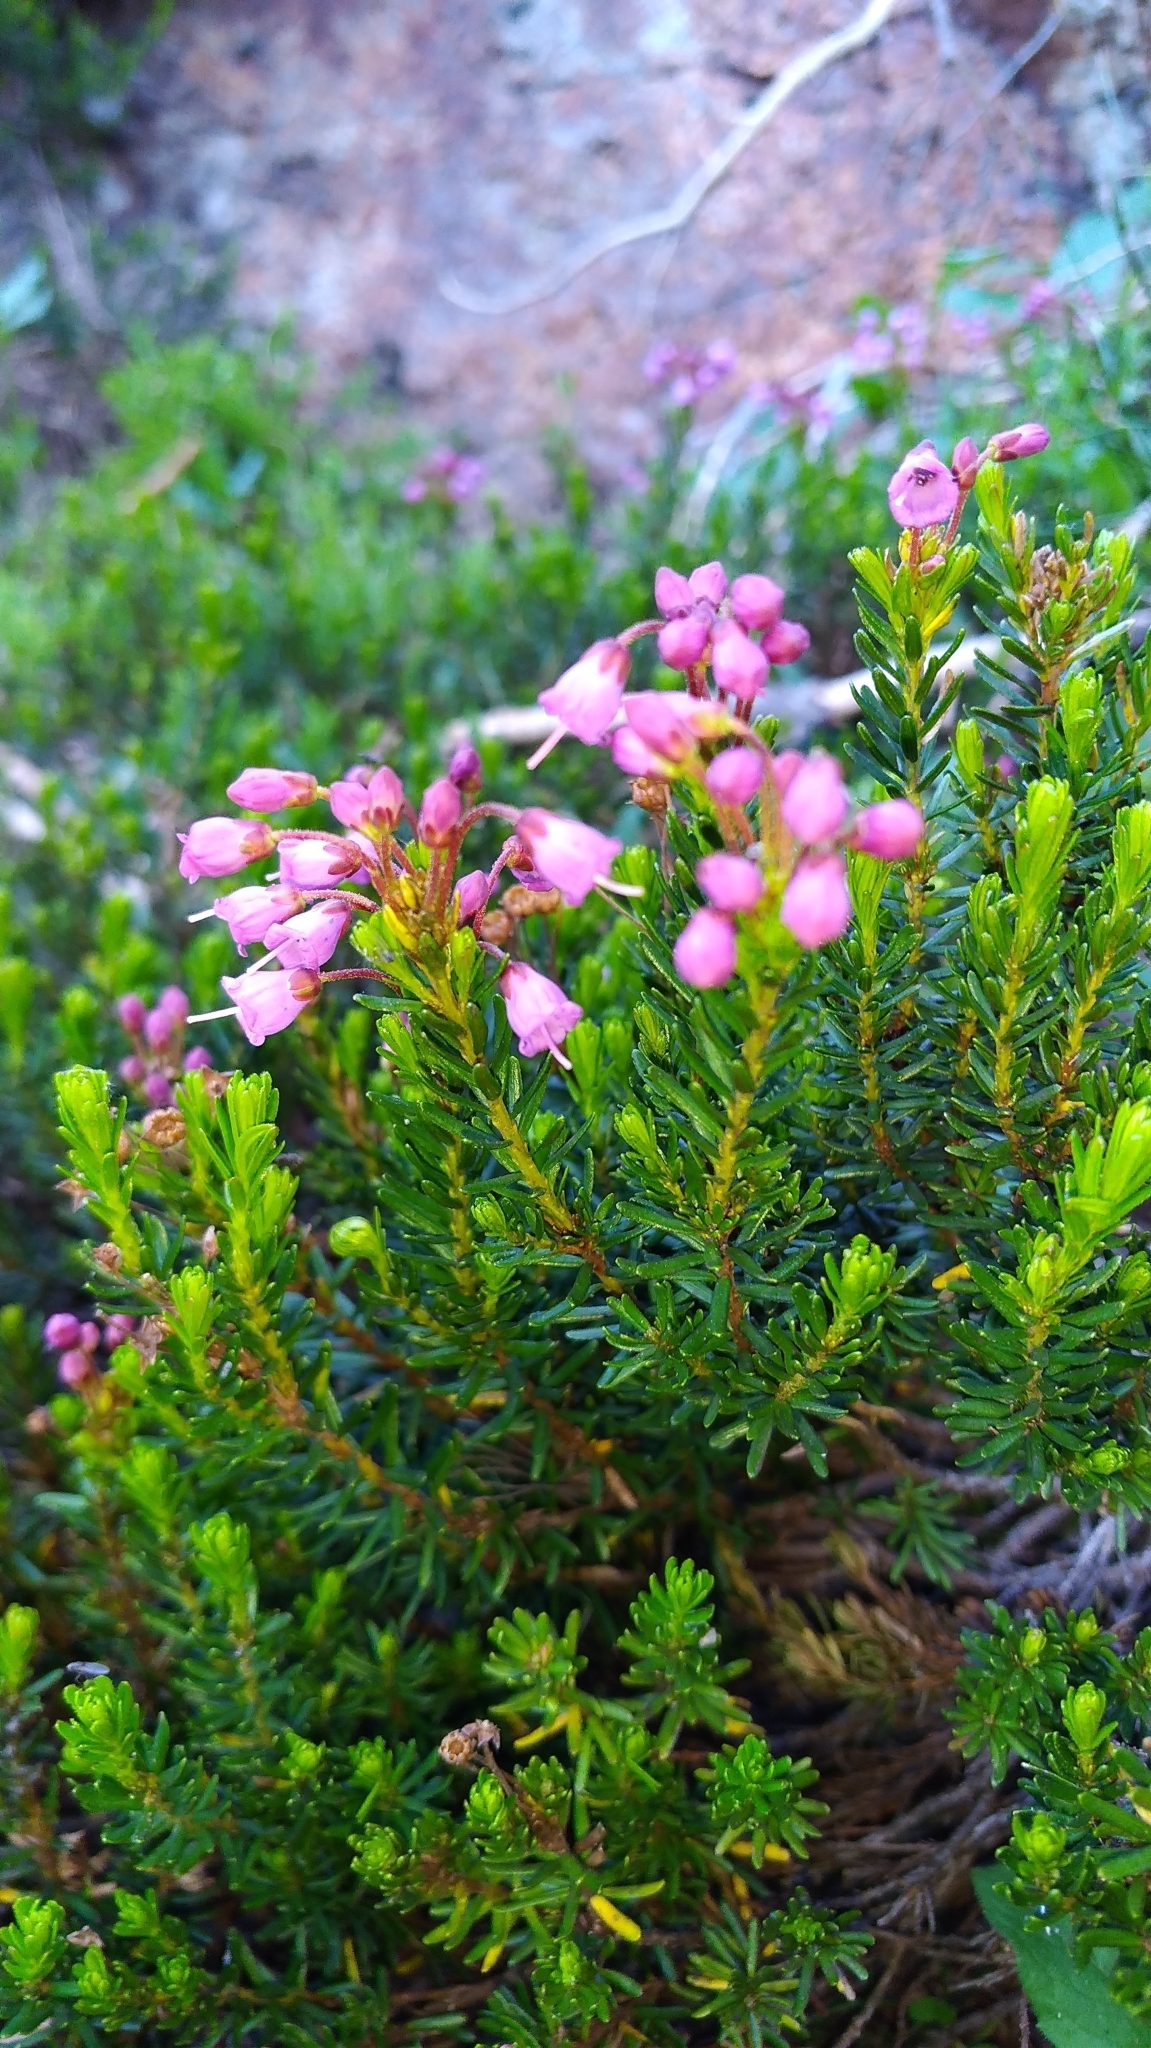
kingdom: Plantae
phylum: Tracheophyta
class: Magnoliopsida
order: Ericales
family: Ericaceae
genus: Phyllodoce
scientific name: Phyllodoce empetriformis
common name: Pink mountain heather
